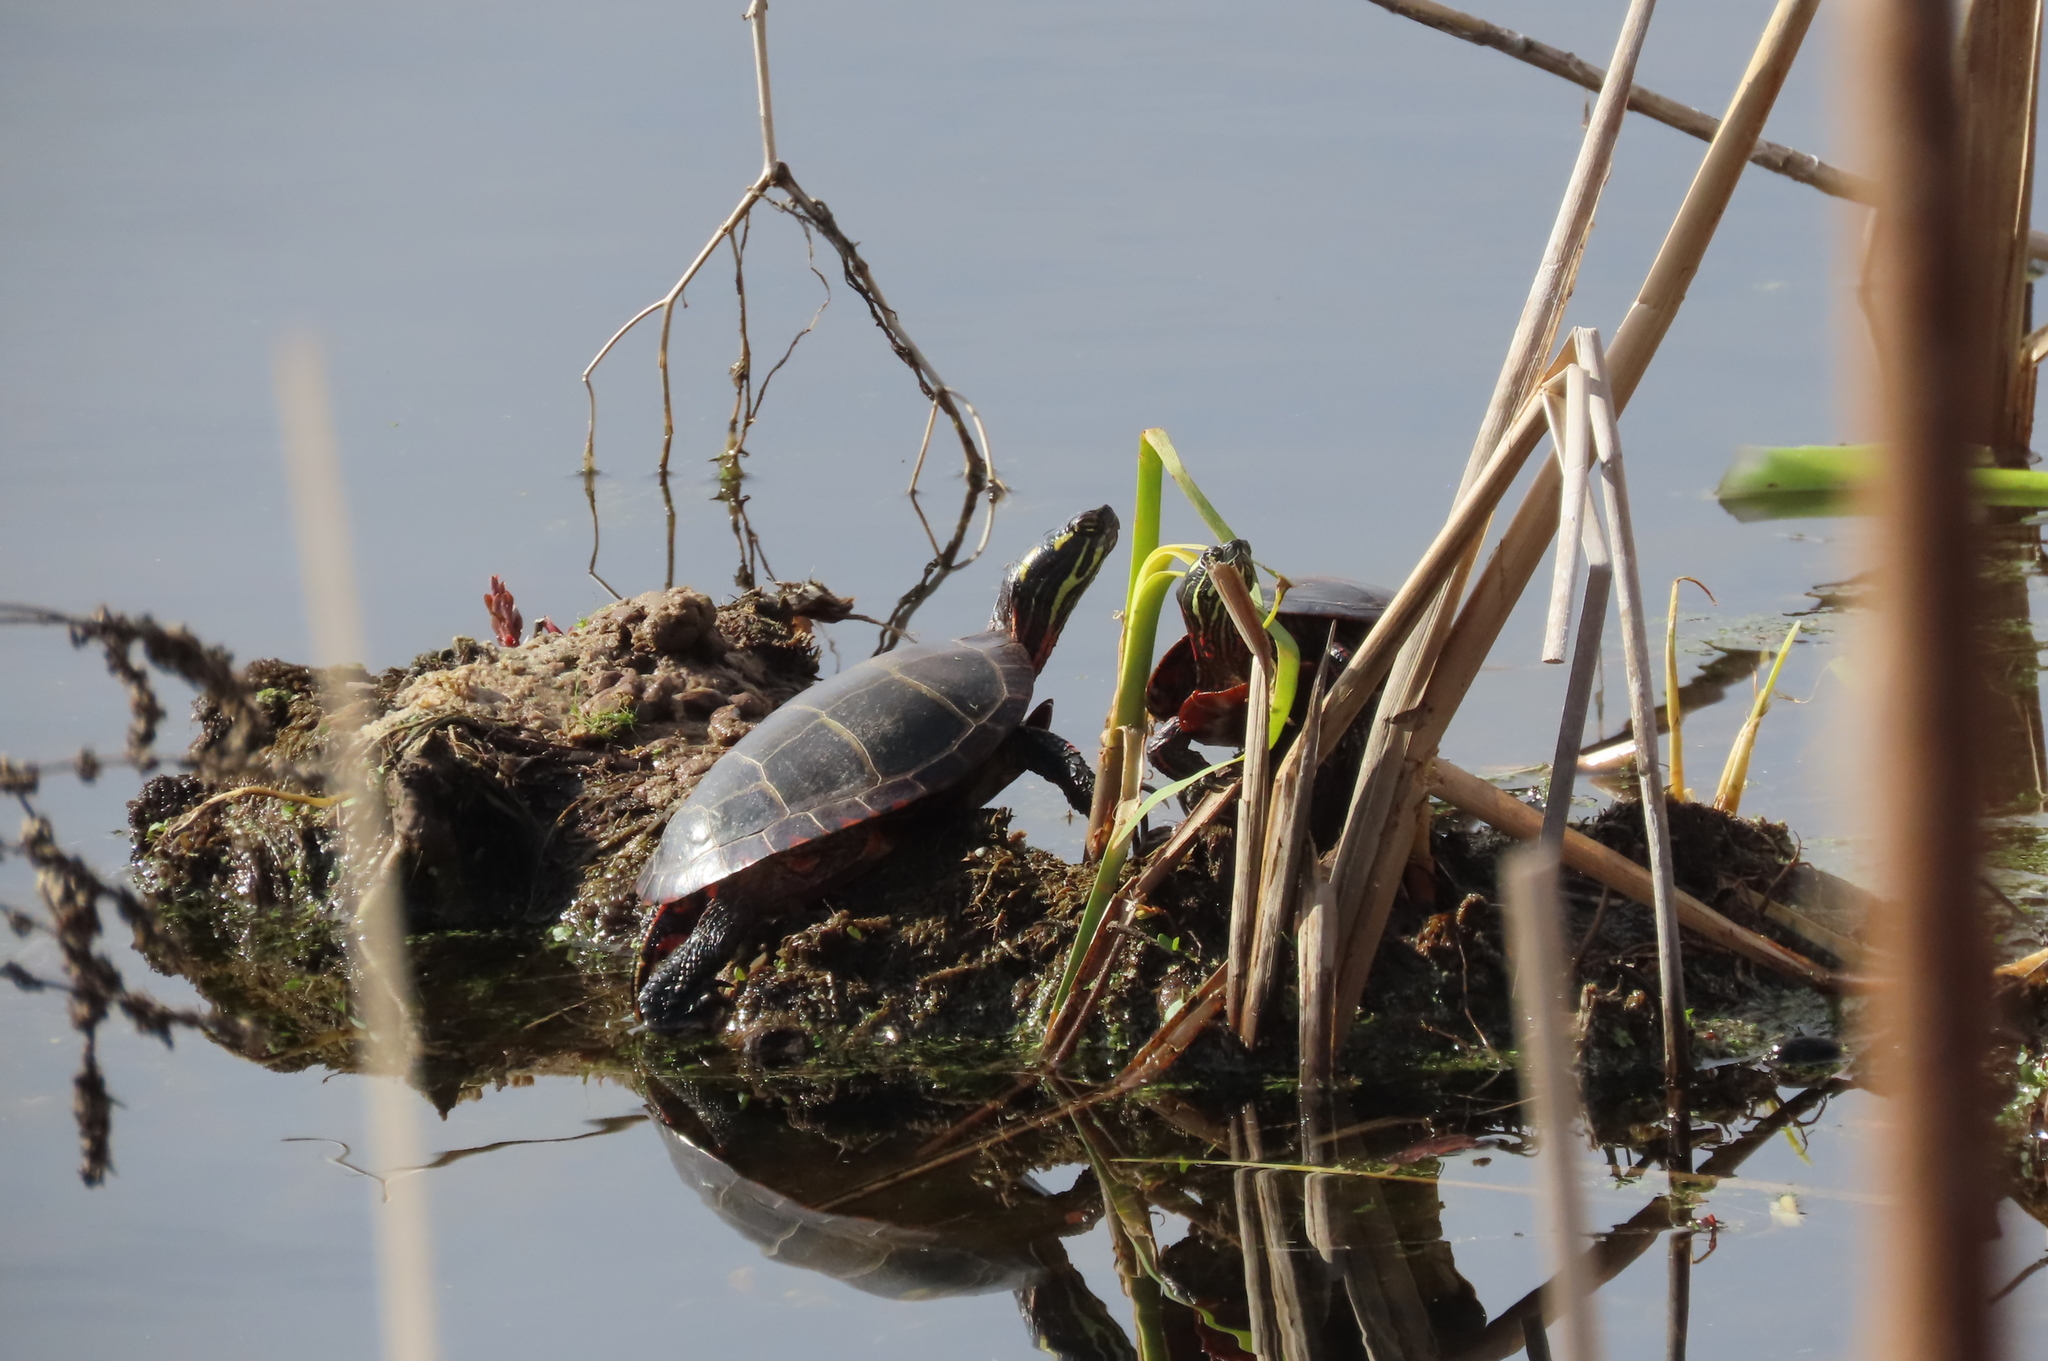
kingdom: Animalia
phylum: Chordata
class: Testudines
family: Emydidae
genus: Chrysemys
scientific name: Chrysemys picta
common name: Painted turtle
